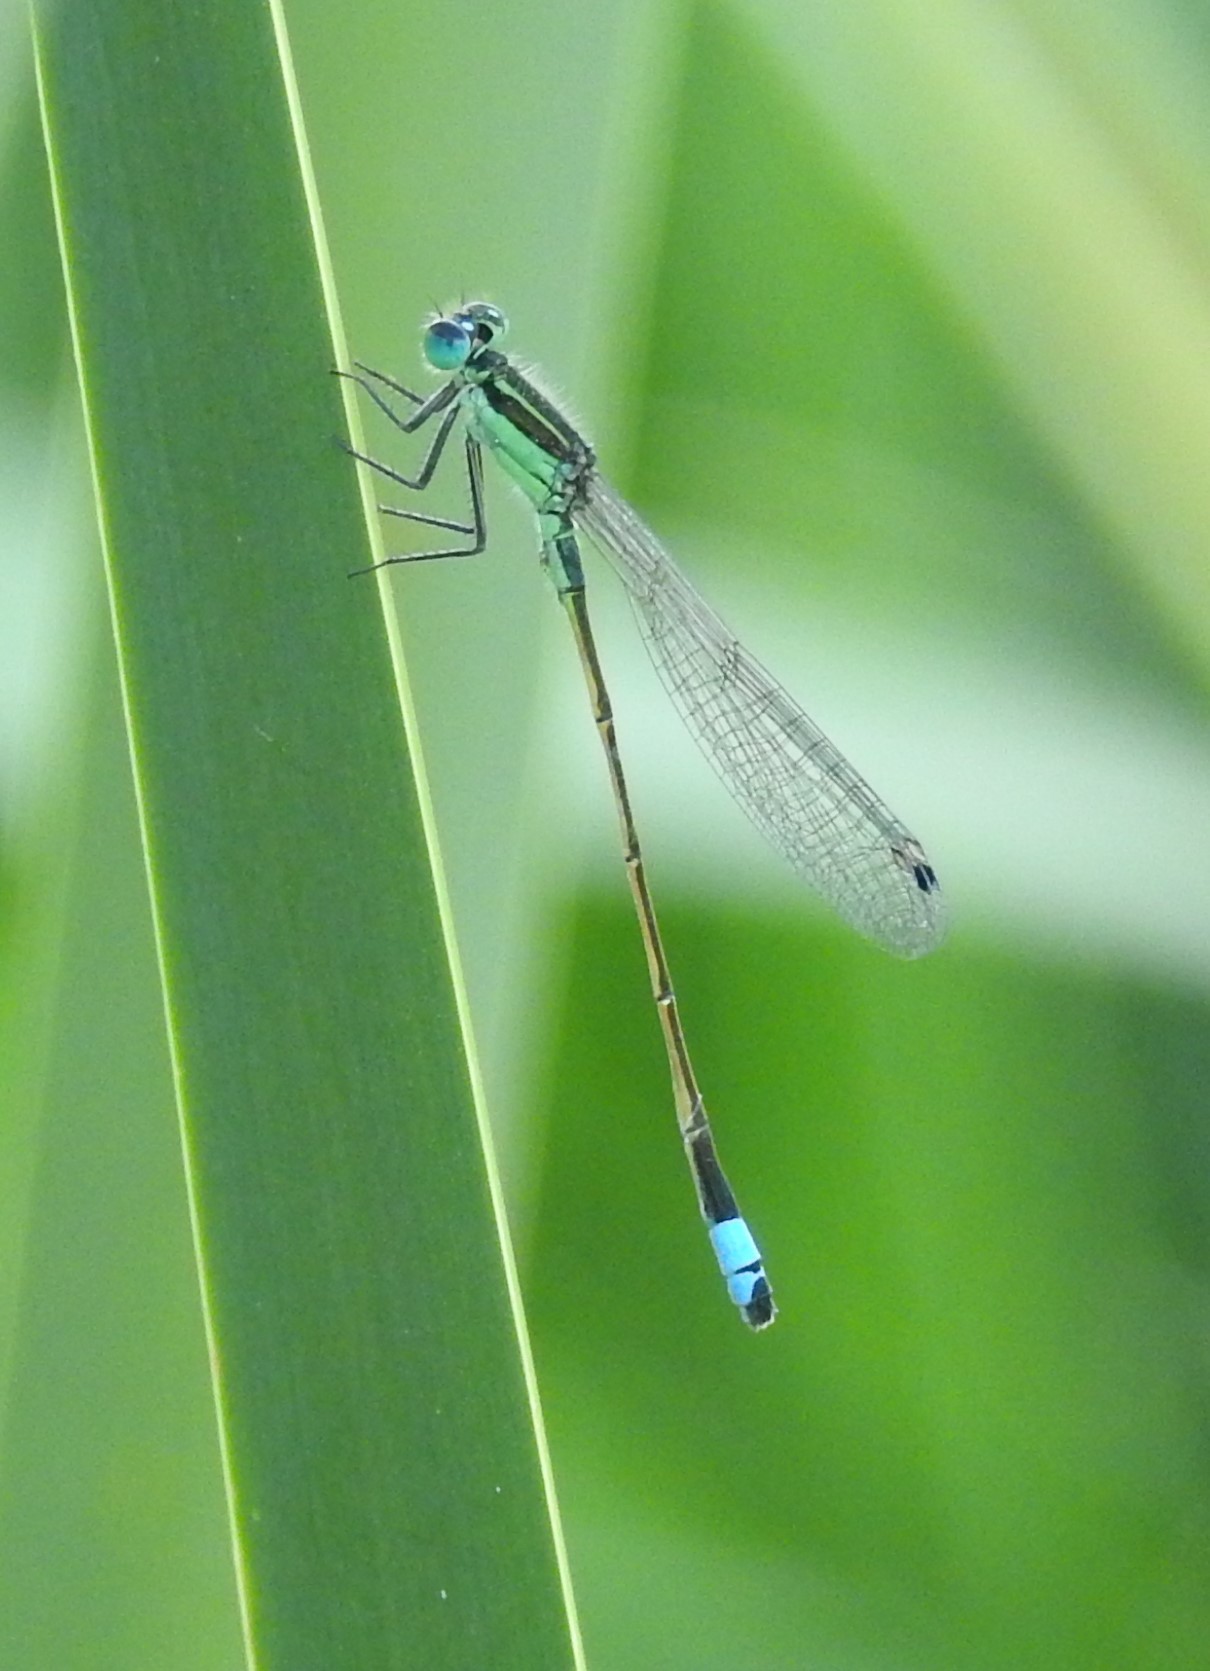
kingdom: Animalia
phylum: Arthropoda
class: Insecta
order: Odonata
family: Coenagrionidae
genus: Ischnura
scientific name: Ischnura ramburii
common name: Rambur's forktail
